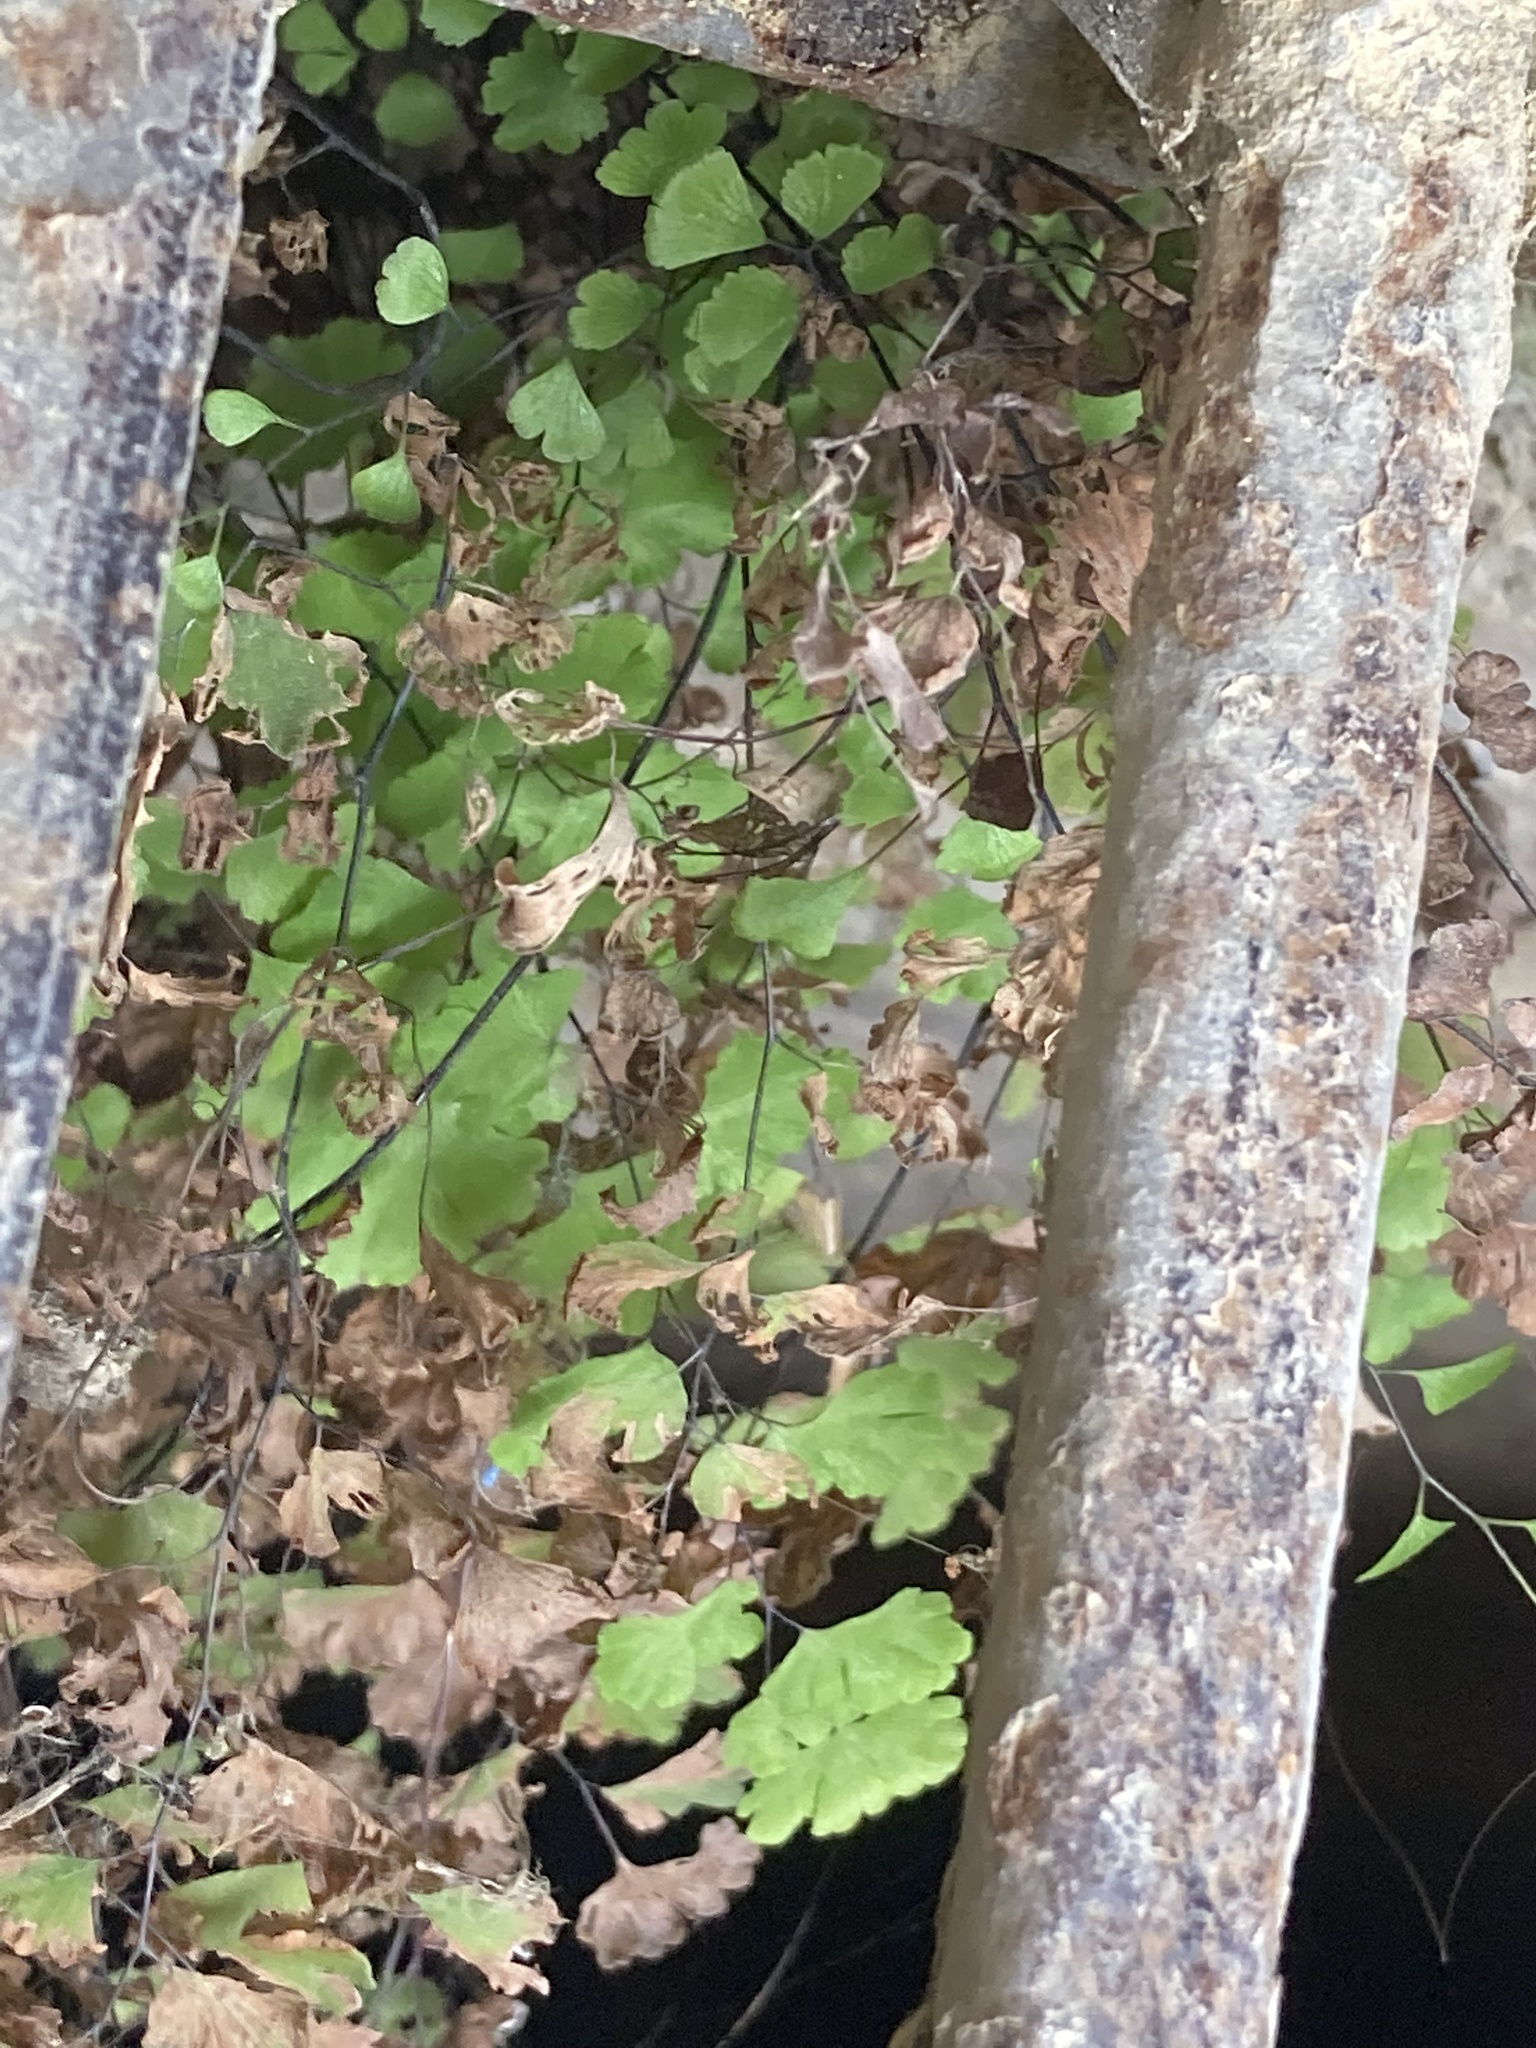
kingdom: Plantae
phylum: Tracheophyta
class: Polypodiopsida
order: Polypodiales
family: Pteridaceae
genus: Adiantum
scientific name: Adiantum capillus-veneris
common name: Maidenhair fern
